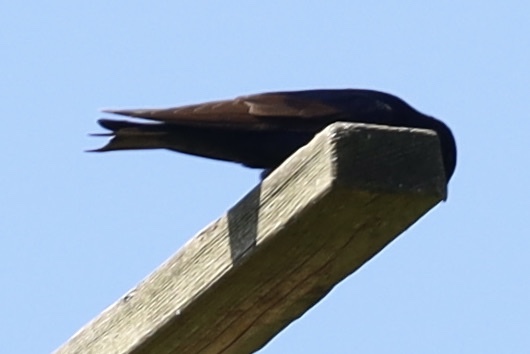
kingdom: Animalia
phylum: Chordata
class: Aves
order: Passeriformes
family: Hirundinidae
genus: Progne
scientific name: Progne subis
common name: Purple martin
